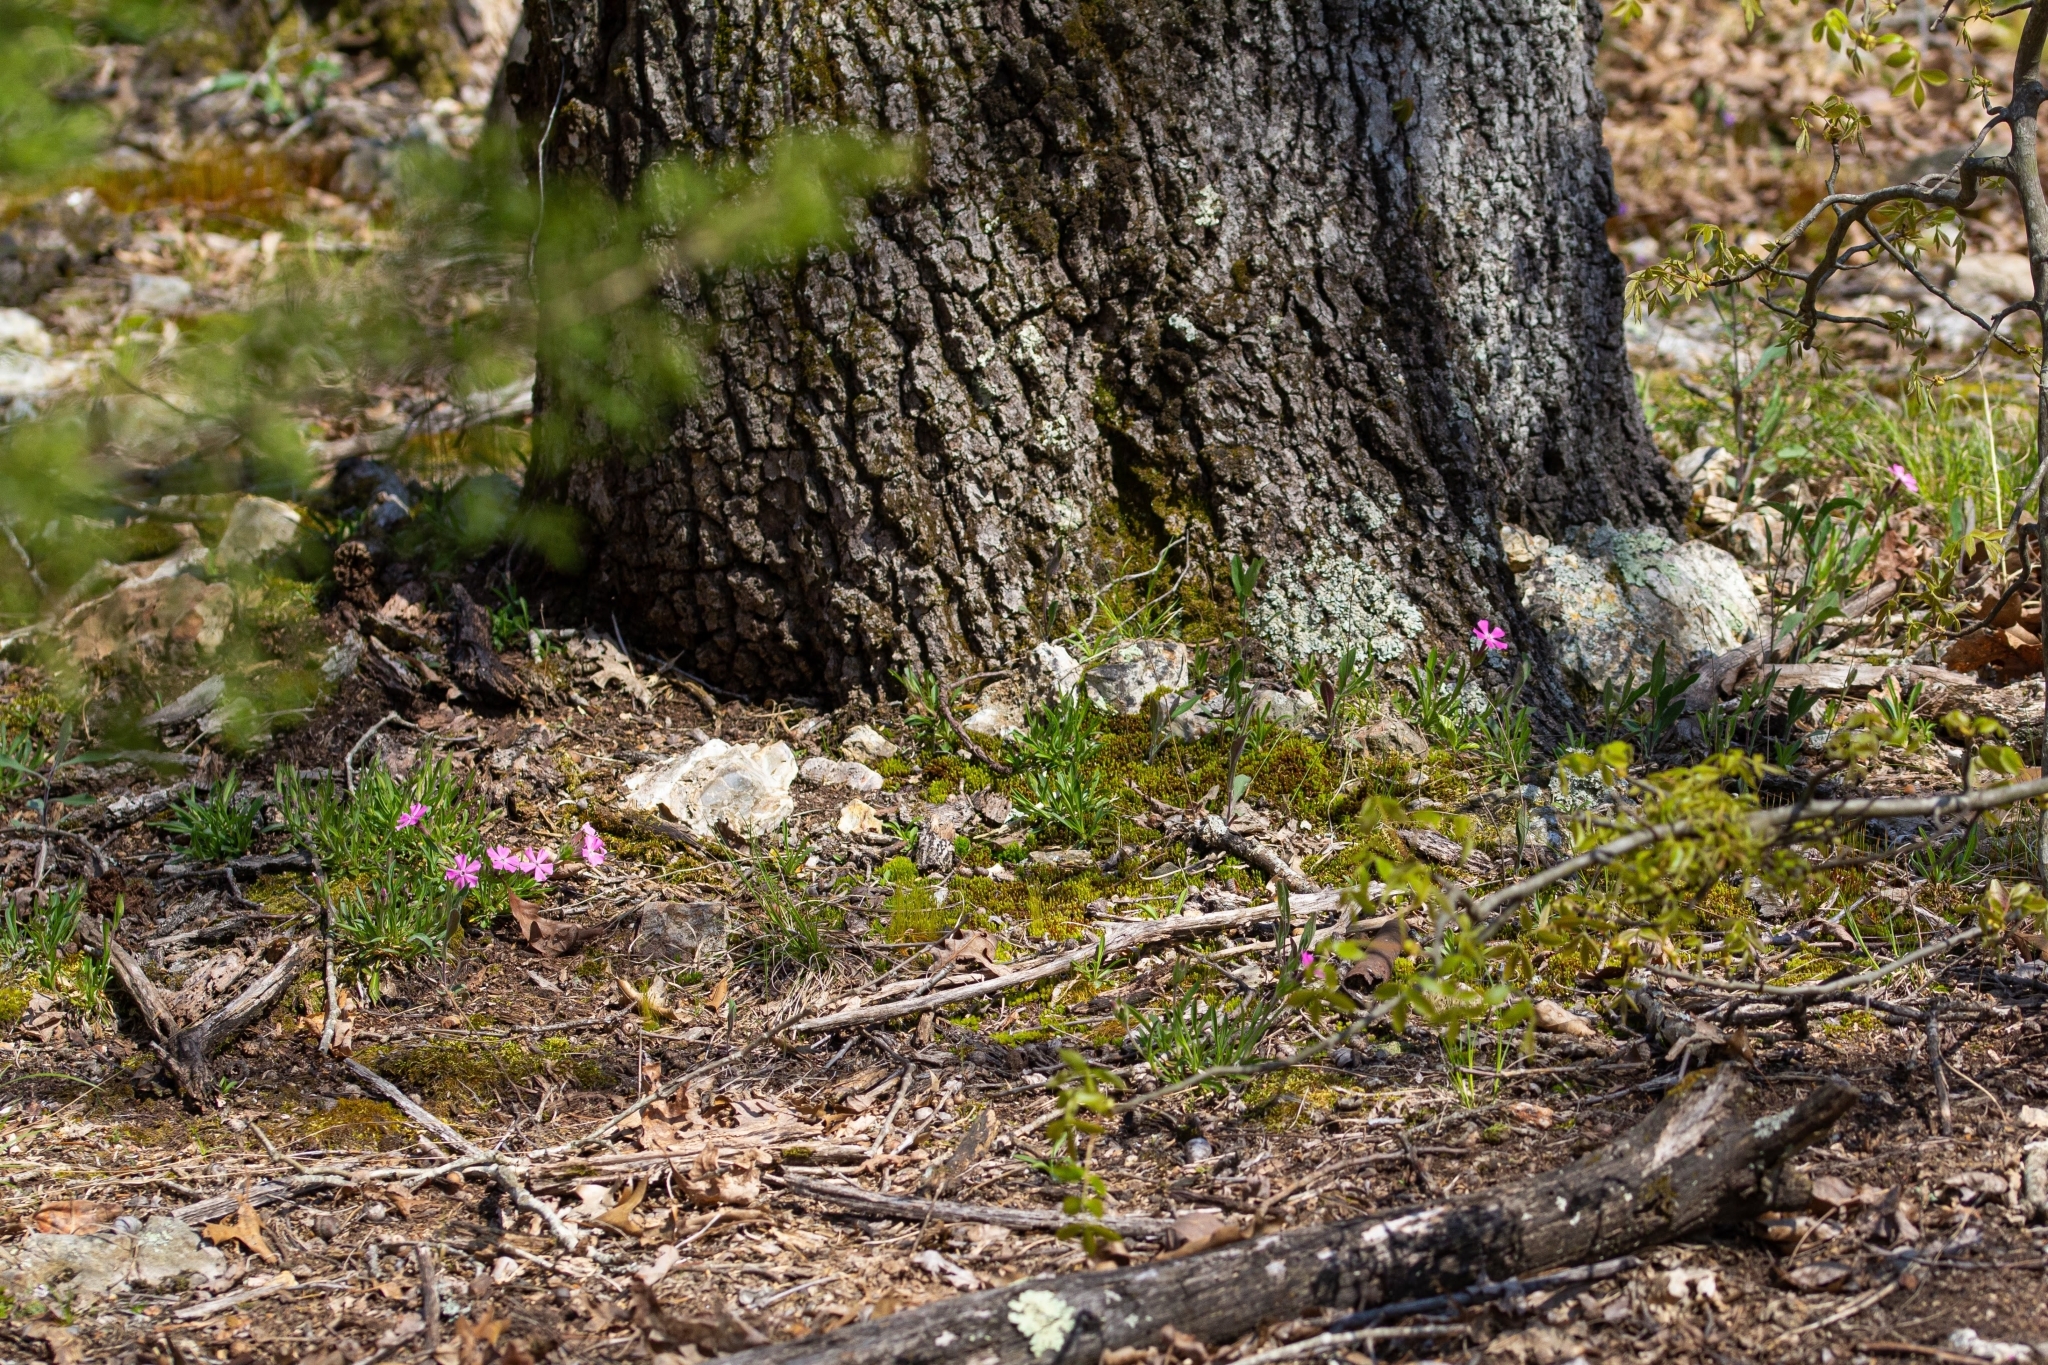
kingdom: Plantae
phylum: Tracheophyta
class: Magnoliopsida
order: Caryophyllales
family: Caryophyllaceae
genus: Silene
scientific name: Silene caroliniana
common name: Sticky catchfly
